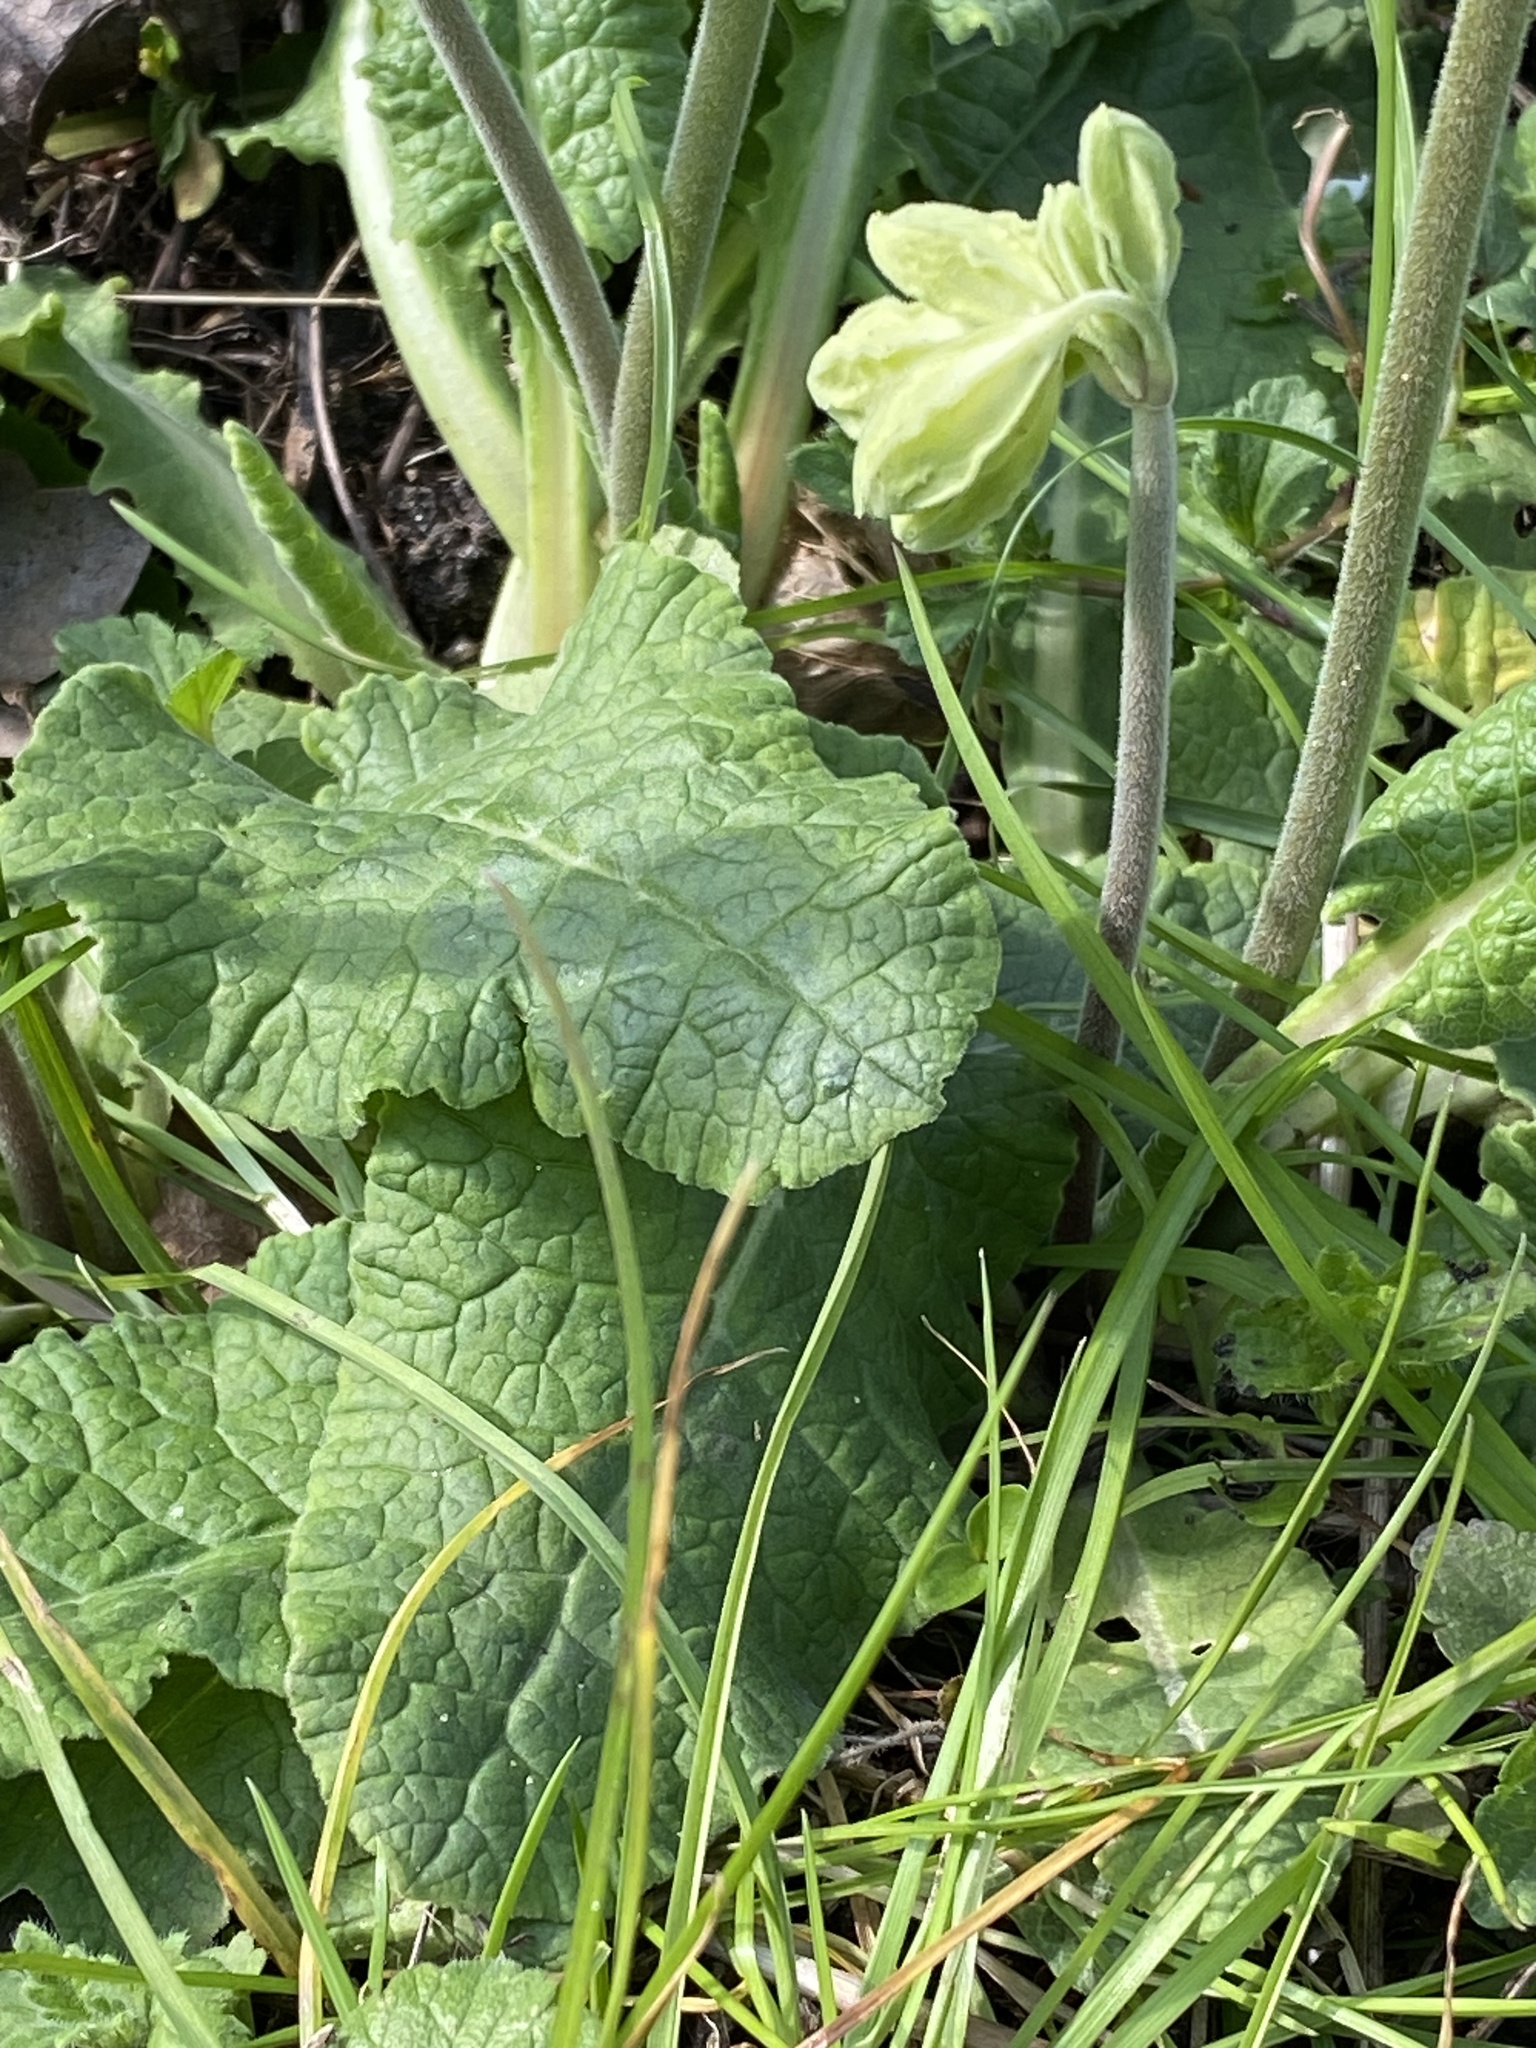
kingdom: Plantae
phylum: Tracheophyta
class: Magnoliopsida
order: Ericales
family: Primulaceae
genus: Primula
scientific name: Primula veris
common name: Cowslip
